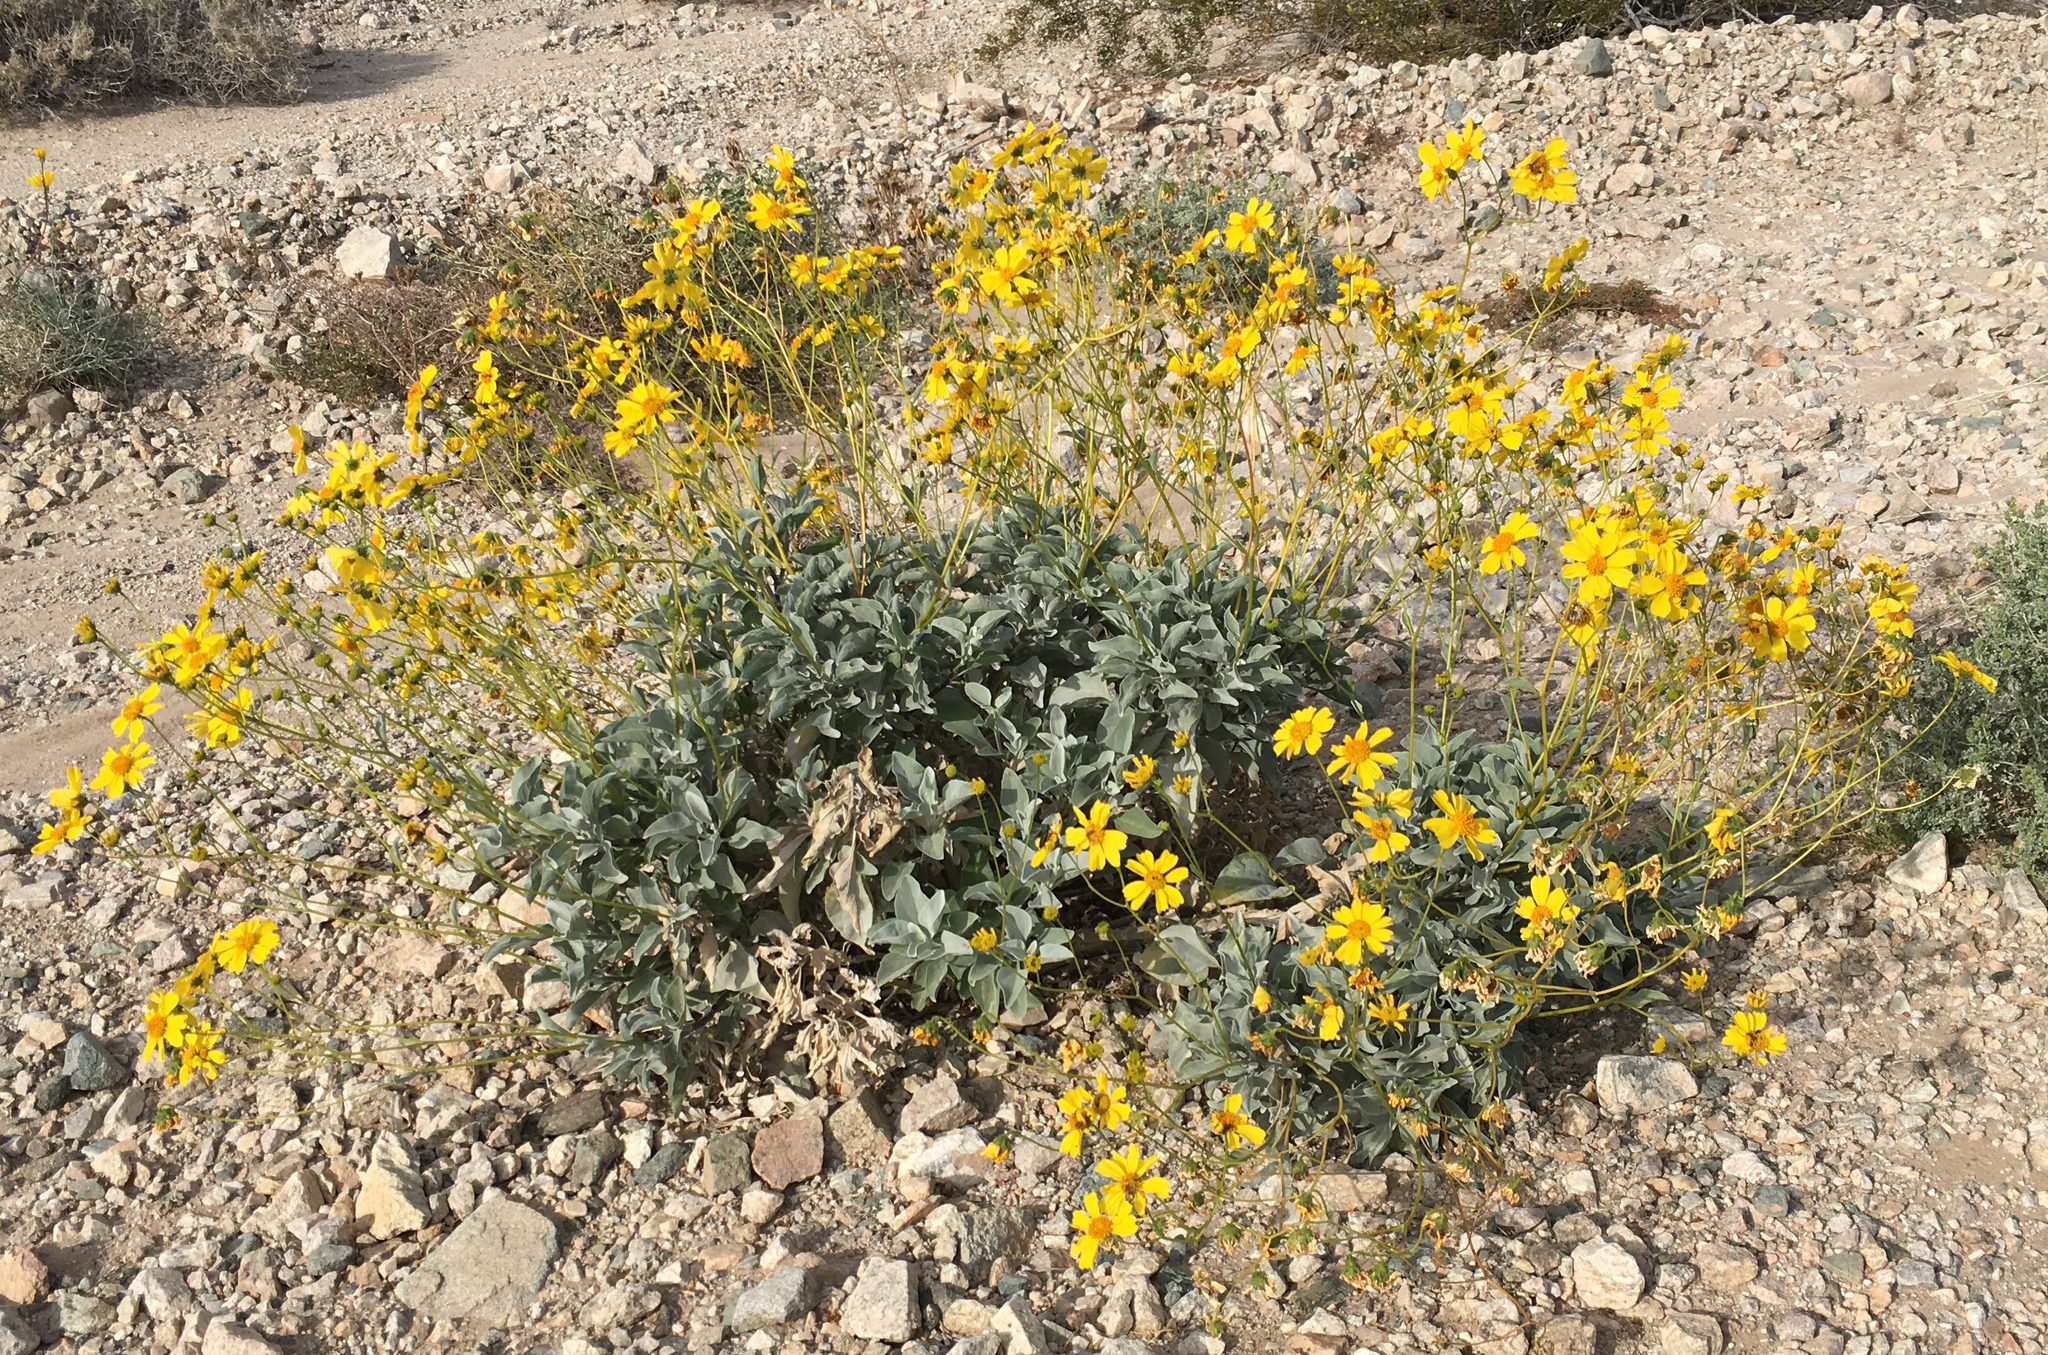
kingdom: Plantae
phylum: Tracheophyta
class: Magnoliopsida
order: Asterales
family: Asteraceae
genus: Encelia
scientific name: Encelia farinosa
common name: Brittlebush
